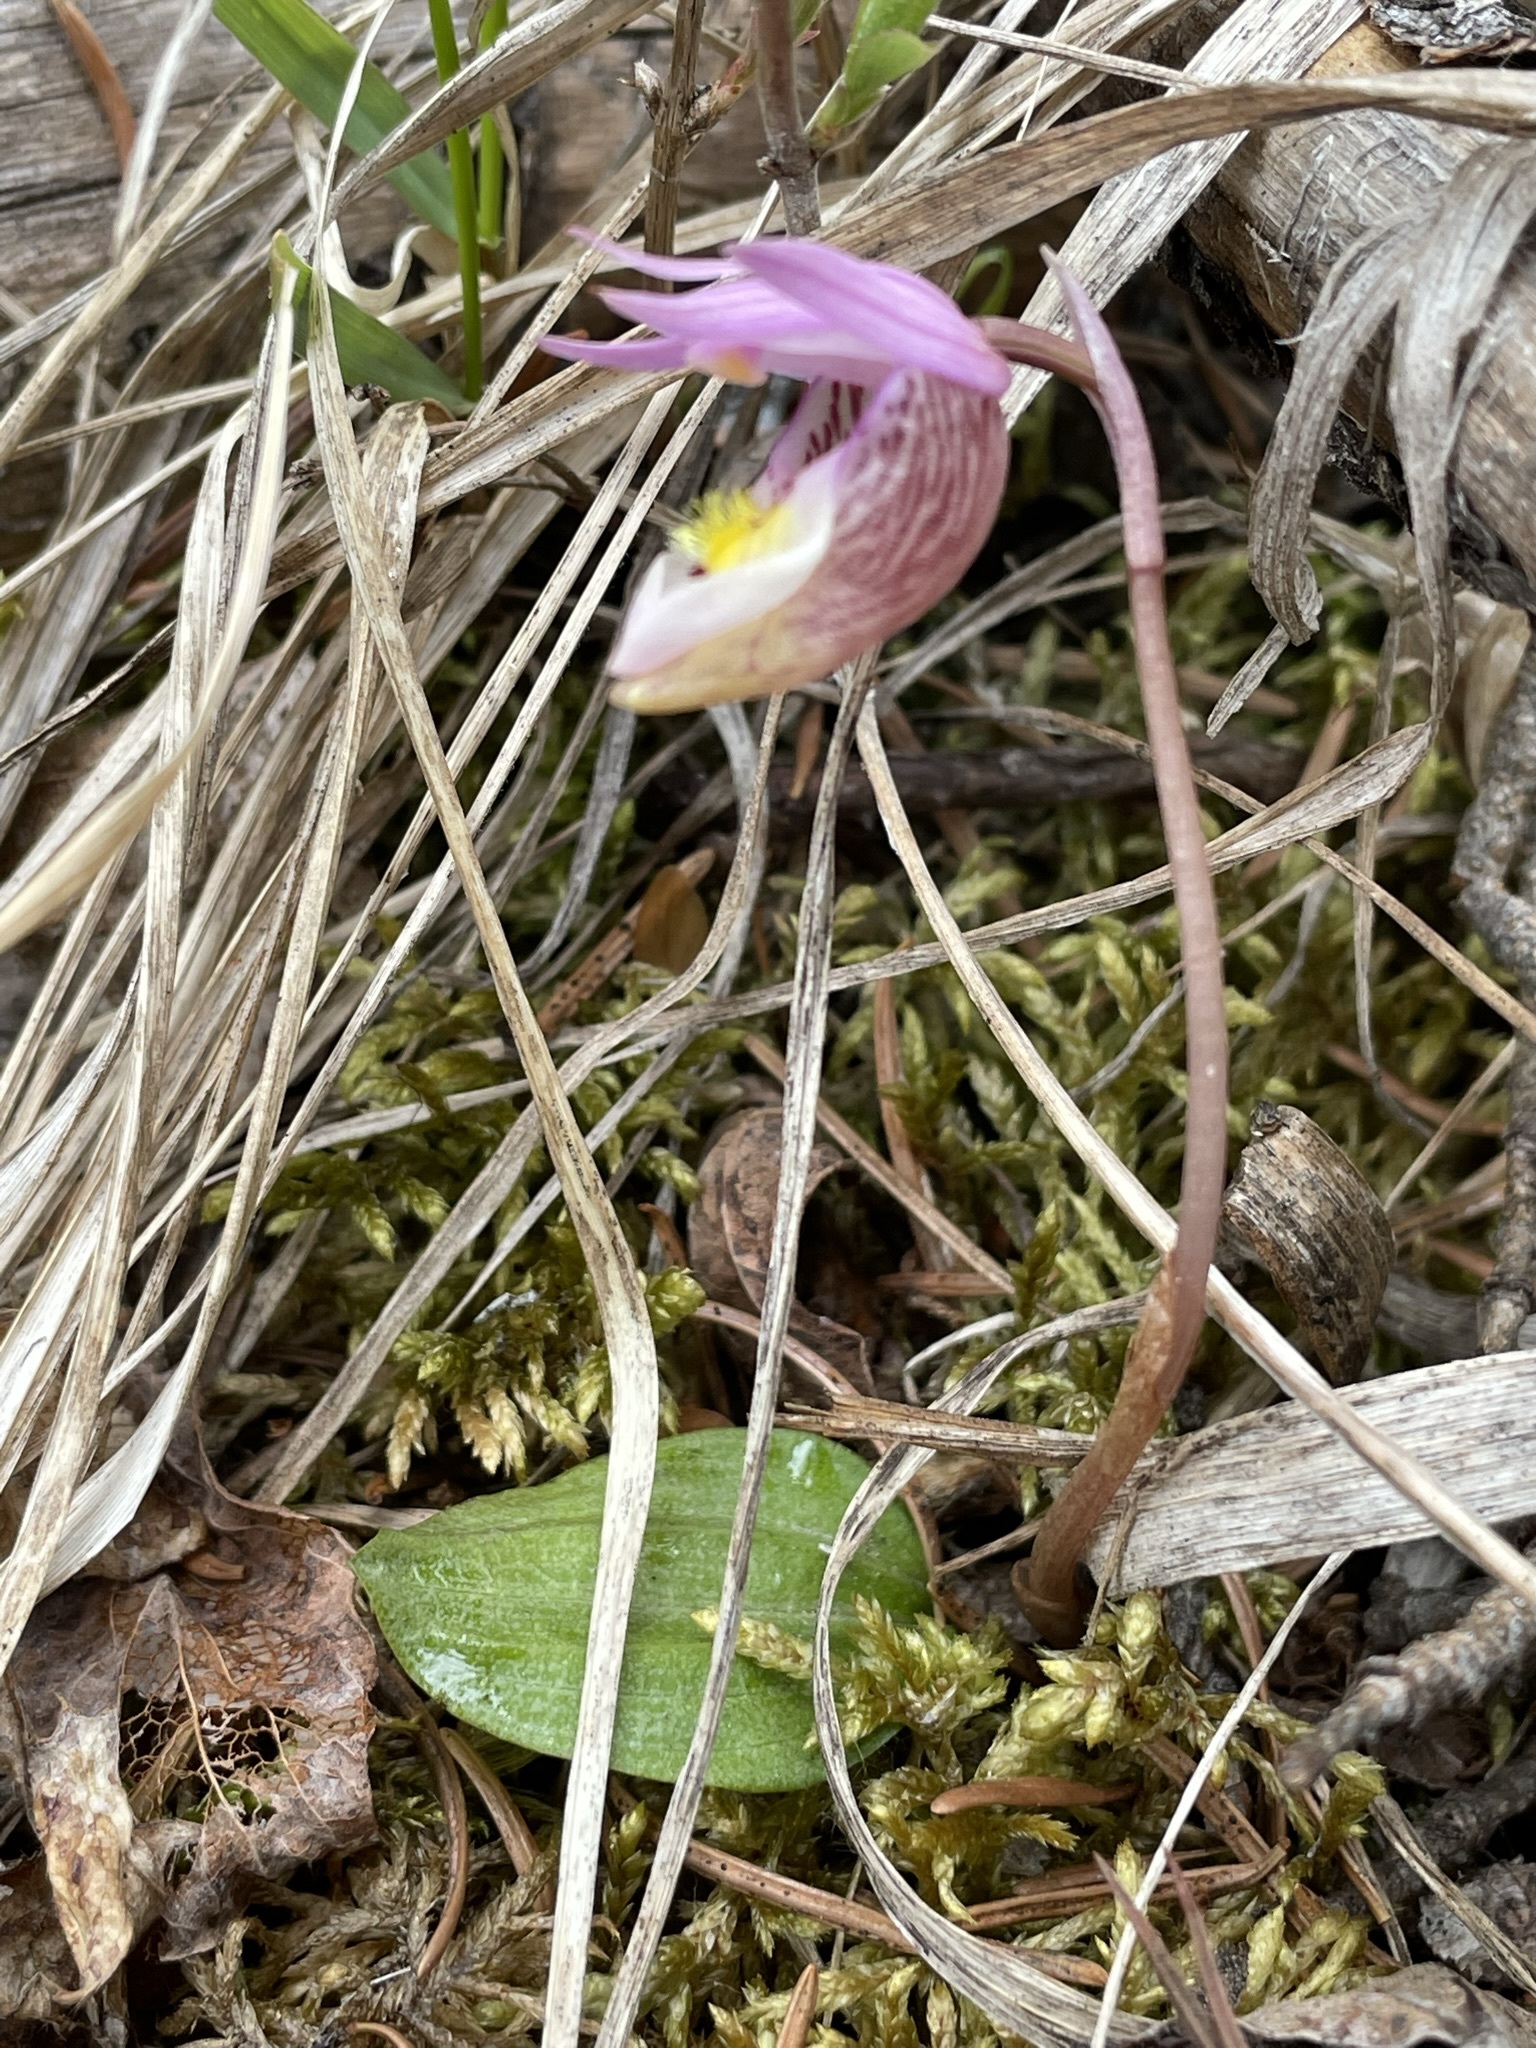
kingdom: Plantae
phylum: Tracheophyta
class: Liliopsida
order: Asparagales
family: Orchidaceae
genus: Calypso
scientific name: Calypso bulbosa
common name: Calypso
